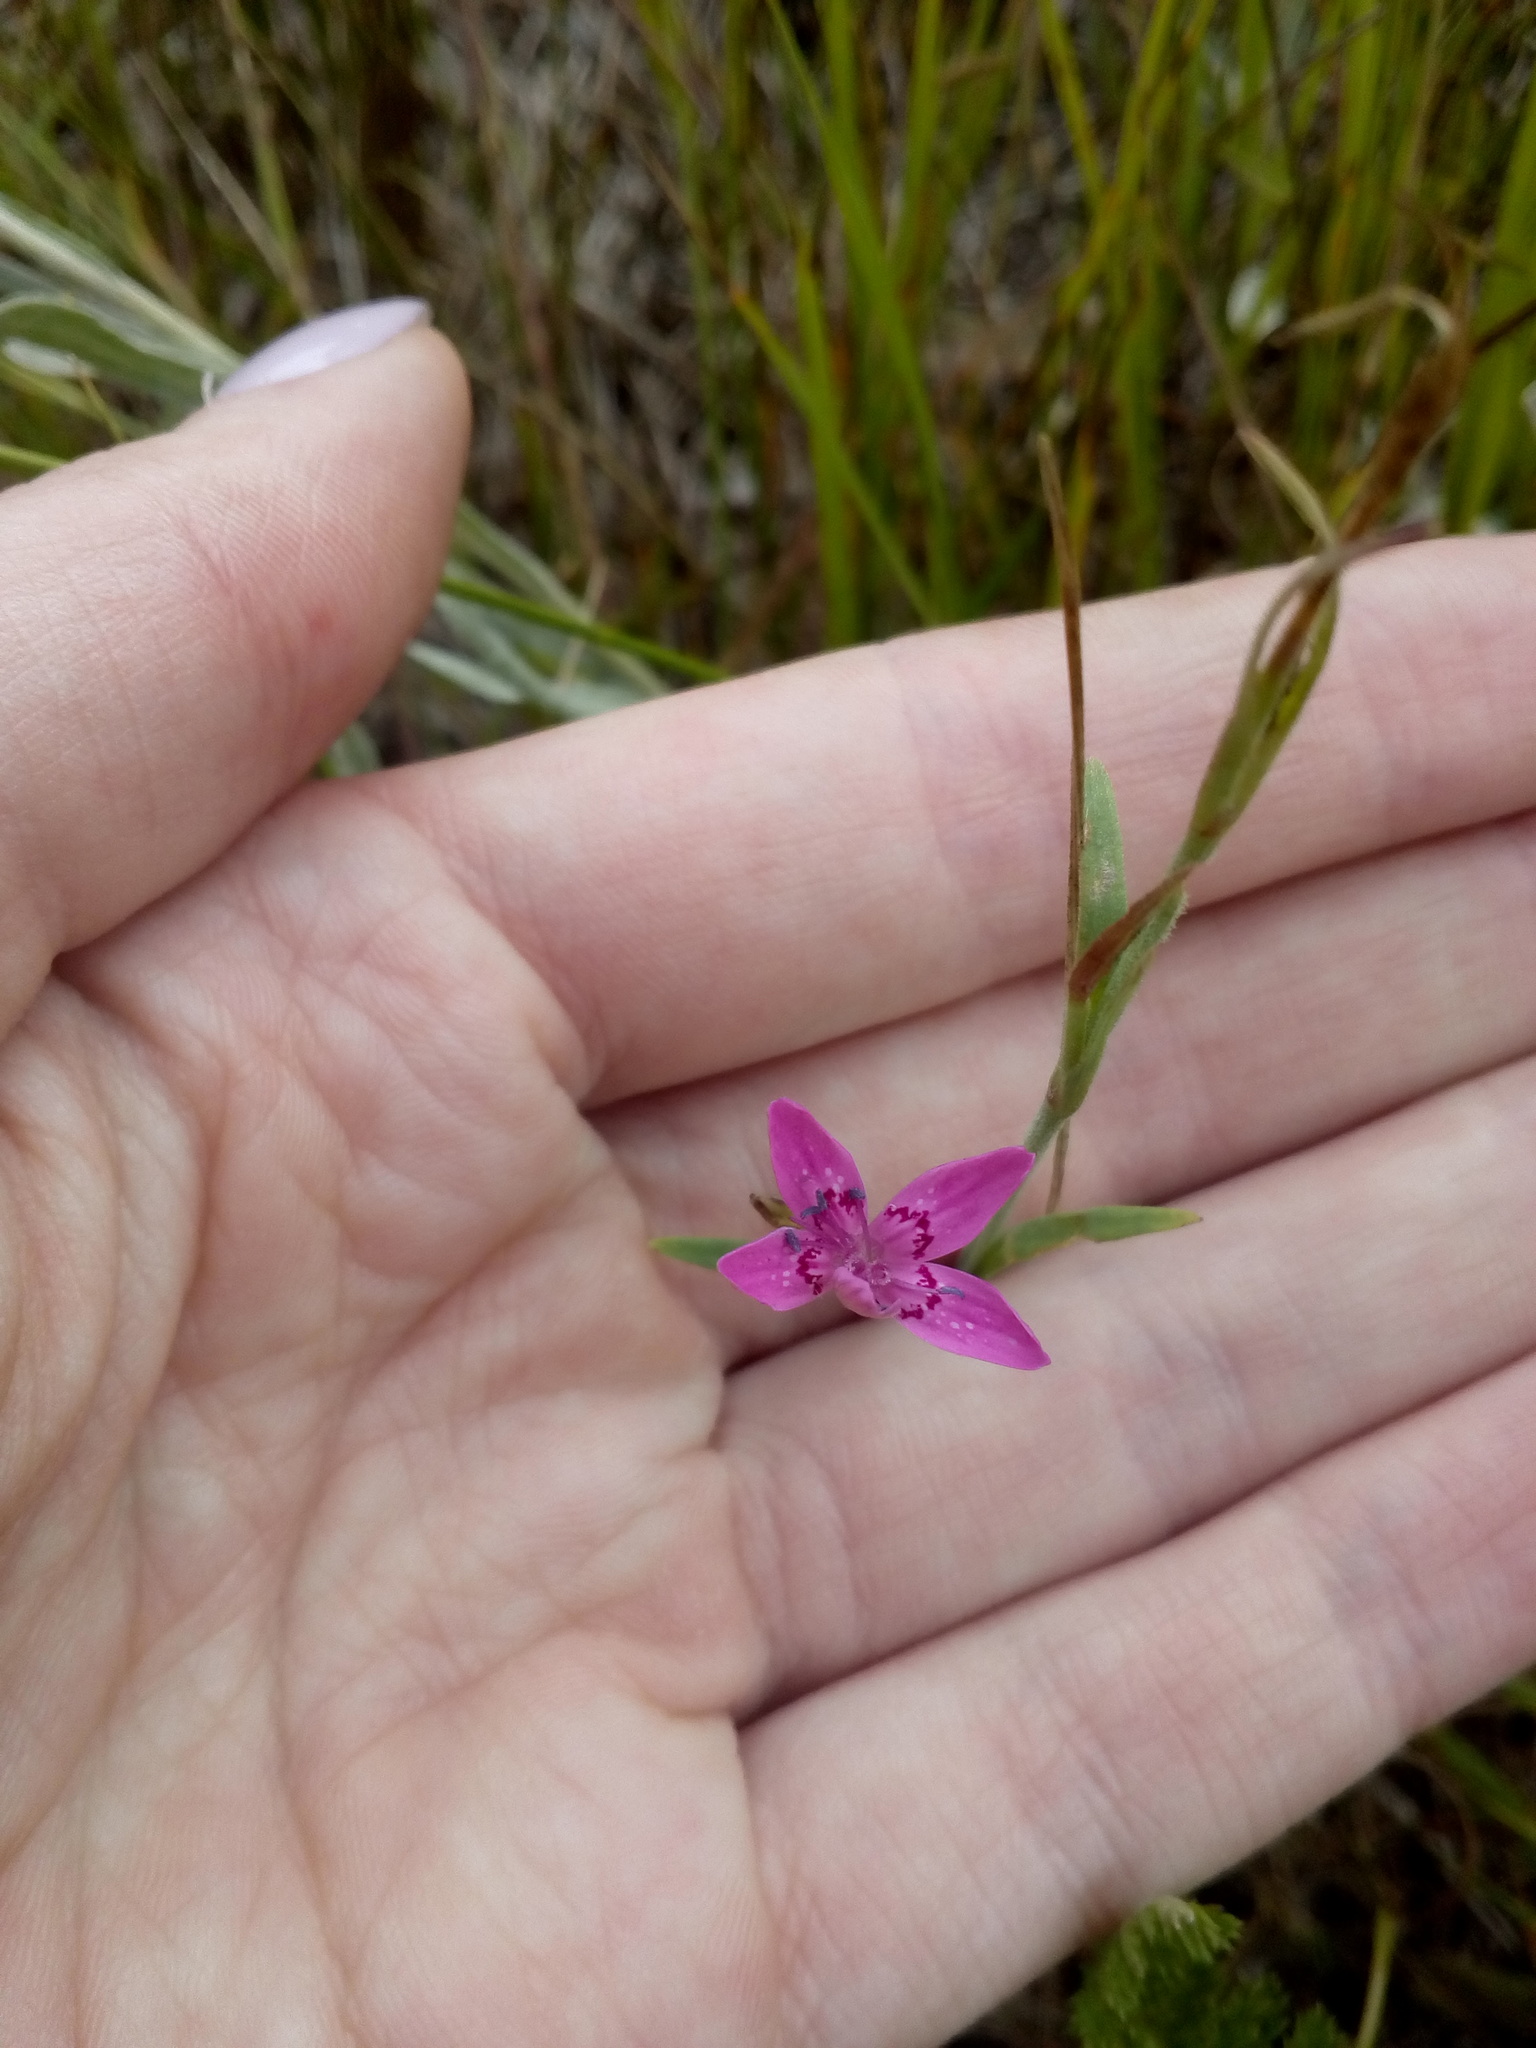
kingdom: Plantae
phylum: Tracheophyta
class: Magnoliopsida
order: Caryophyllales
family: Caryophyllaceae
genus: Dianthus
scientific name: Dianthus deltoides
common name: Maiden pink
